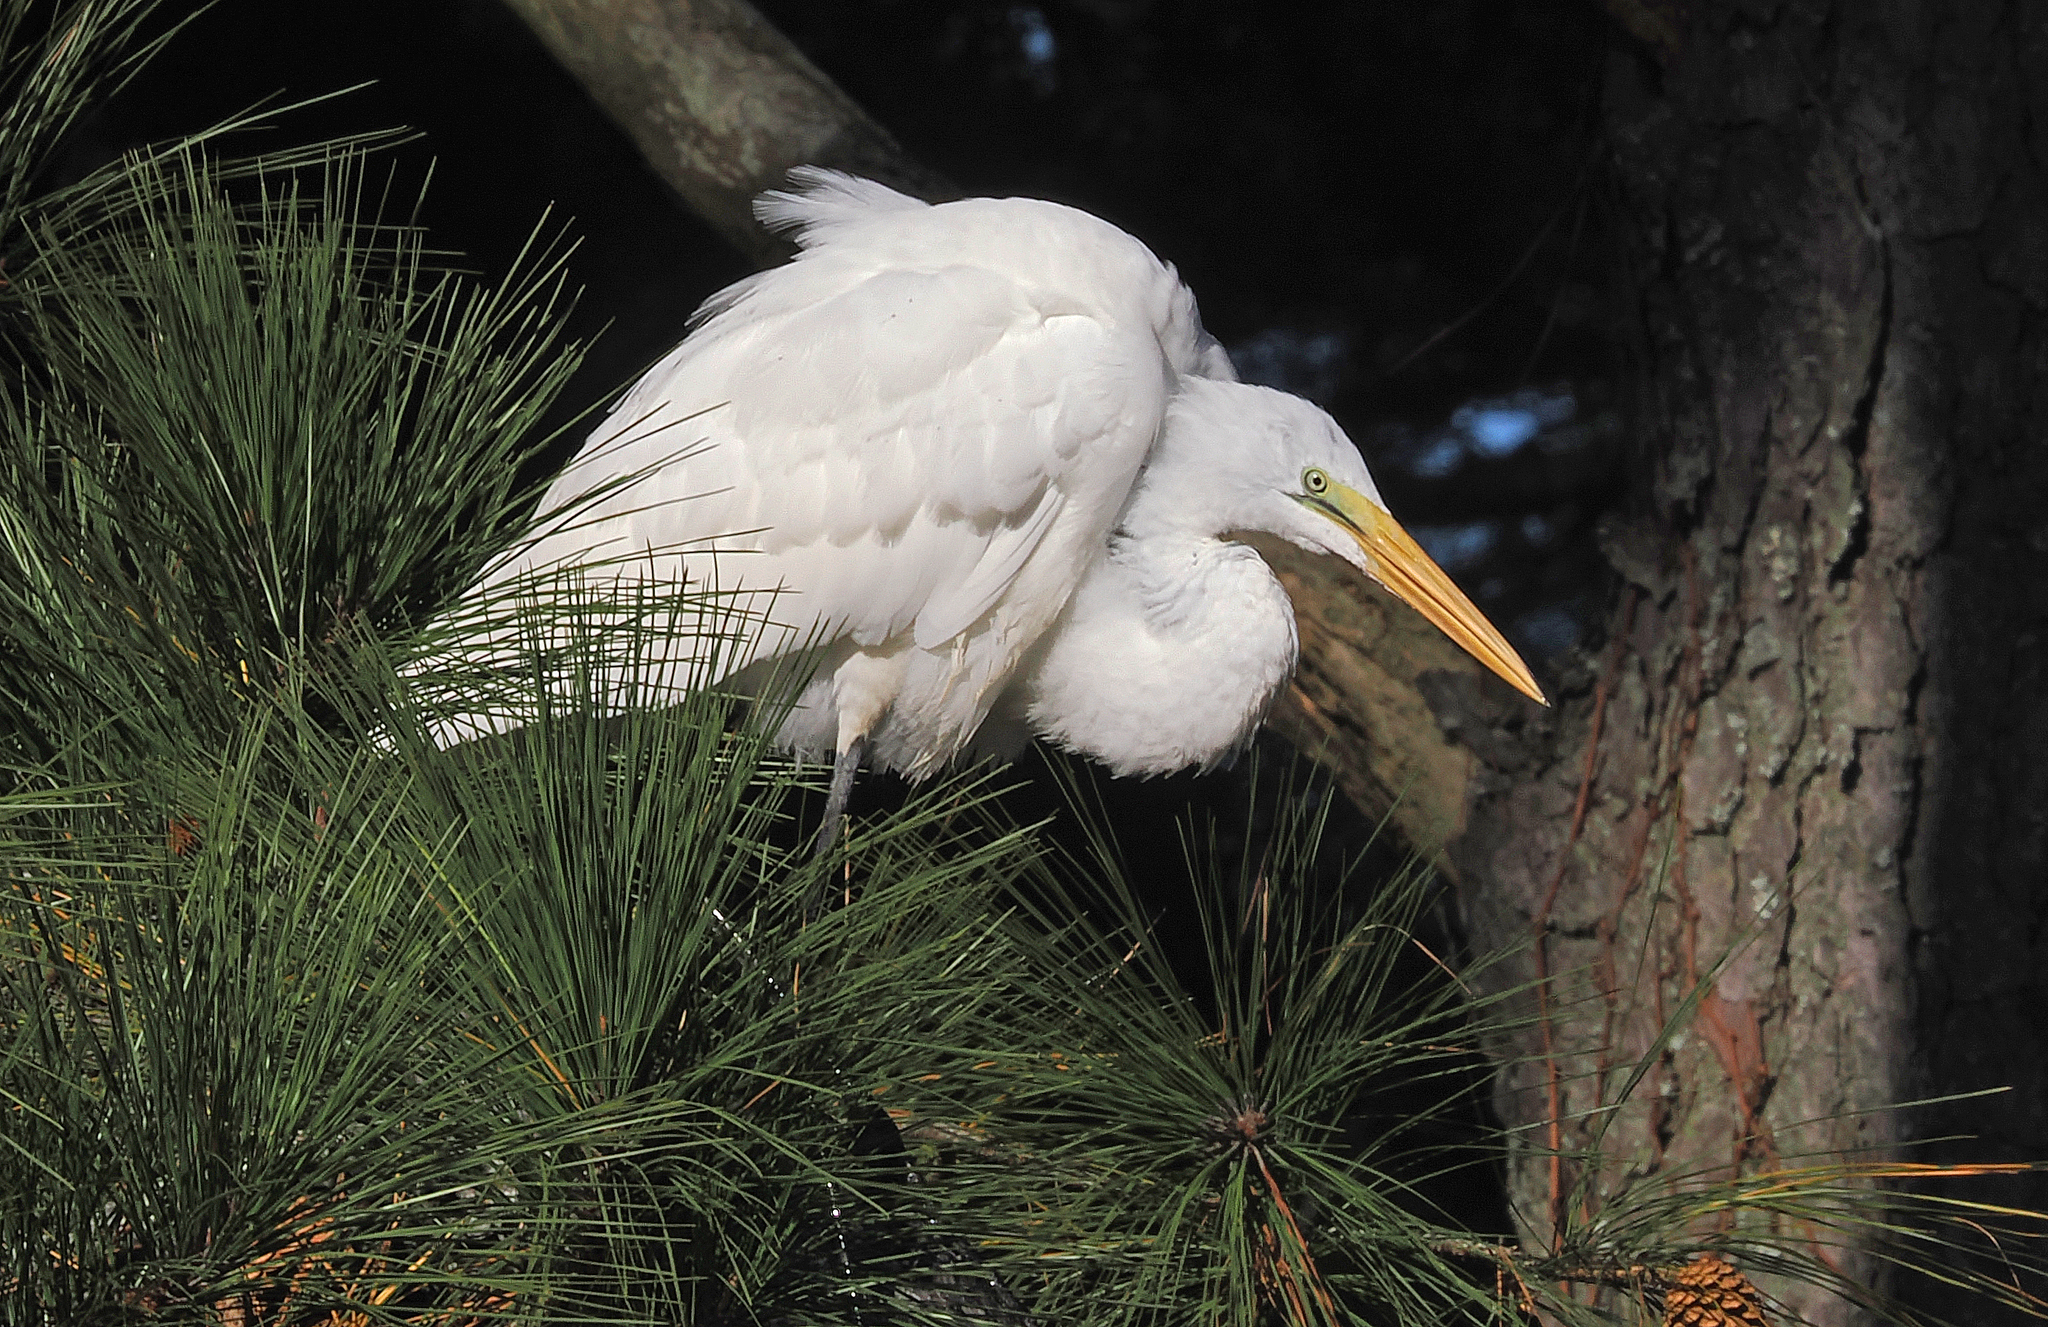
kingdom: Animalia
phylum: Chordata
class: Aves
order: Pelecaniformes
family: Ardeidae
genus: Ardea
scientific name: Ardea alba
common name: Great egret
